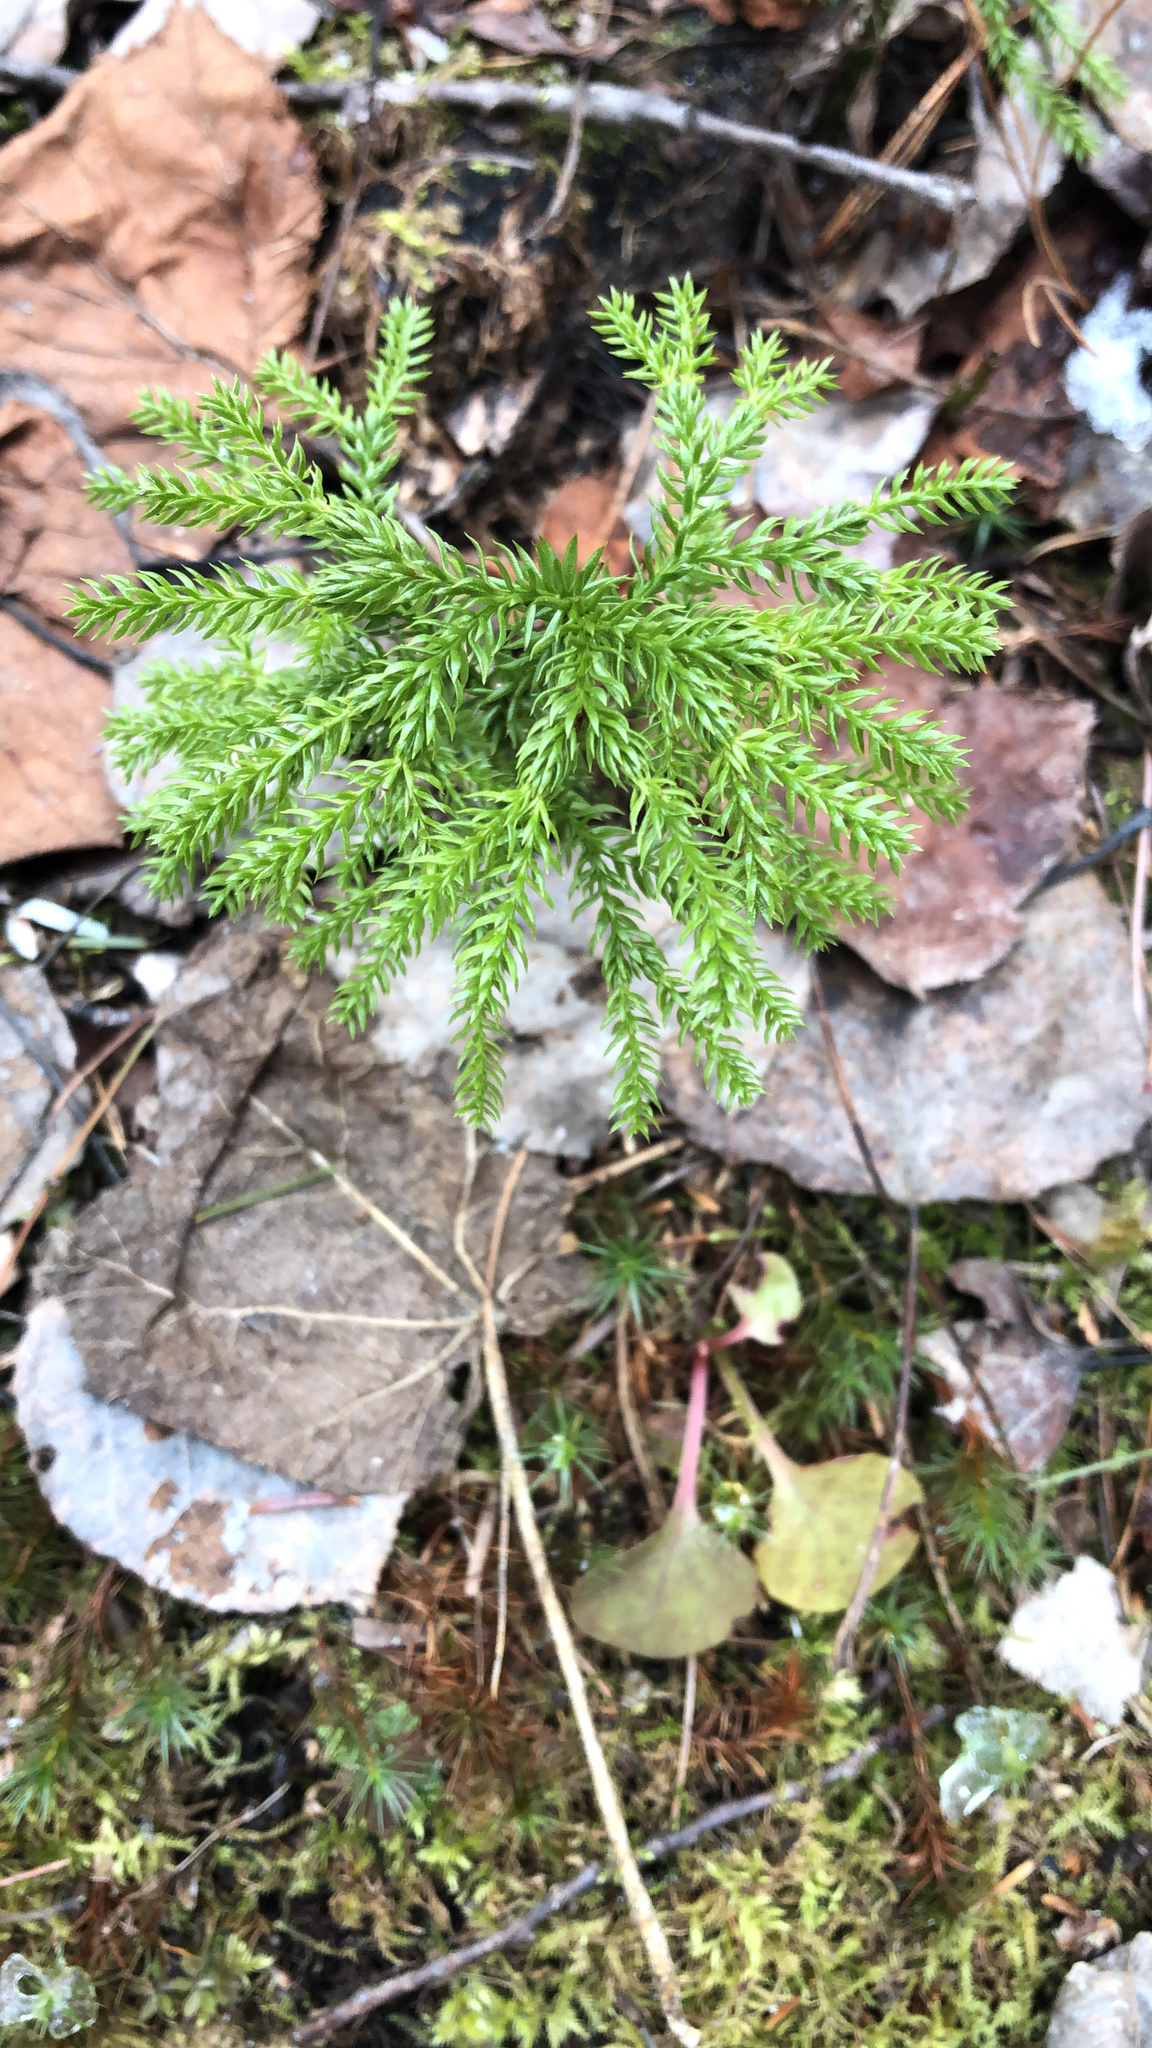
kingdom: Plantae
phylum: Tracheophyta
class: Lycopodiopsida
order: Lycopodiales
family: Lycopodiaceae
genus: Dendrolycopodium
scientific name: Dendrolycopodium dendroideum
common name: Northern tree-clubmoss
